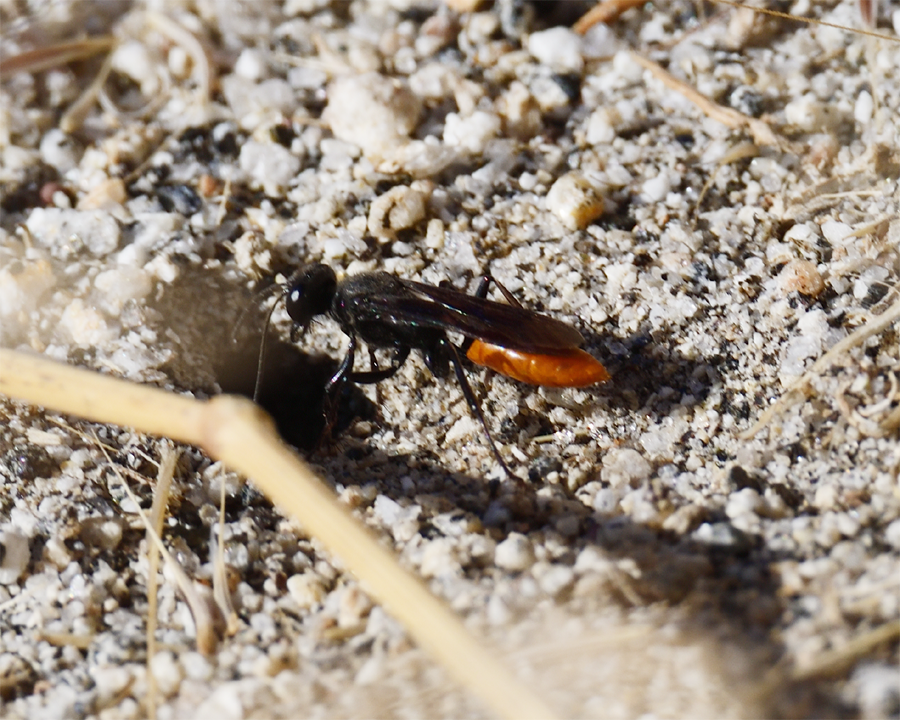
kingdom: Animalia
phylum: Arthropoda
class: Insecta
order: Hymenoptera
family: Sphecidae
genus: Sphex
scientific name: Sphex lucae
